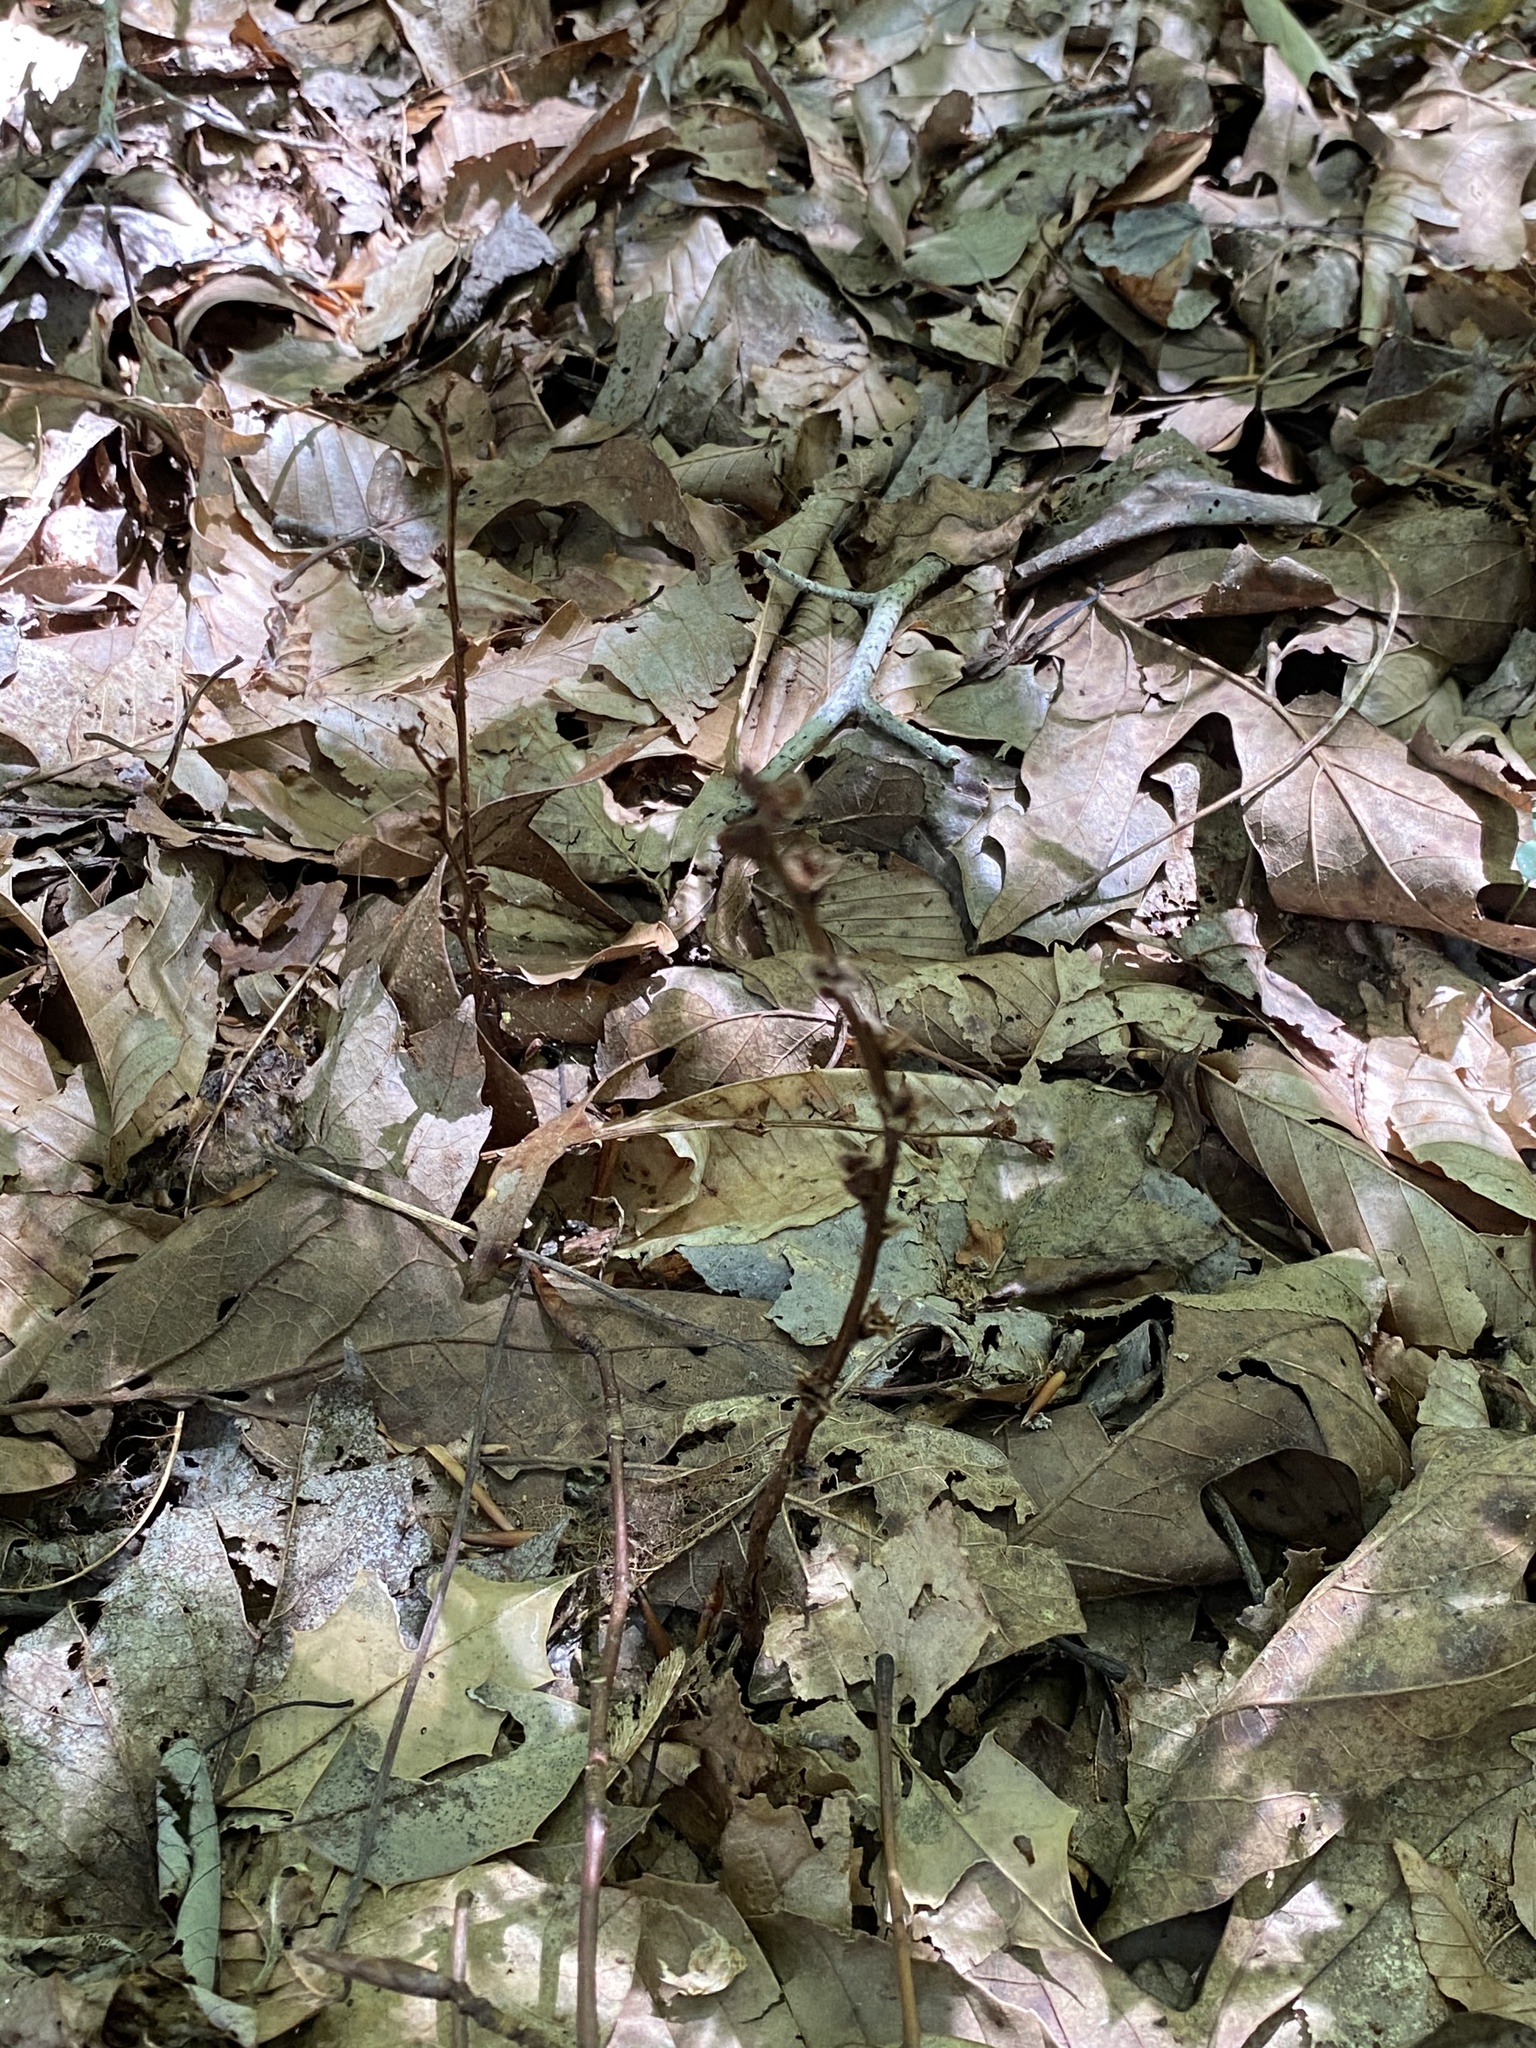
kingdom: Plantae
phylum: Tracheophyta
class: Magnoliopsida
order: Lamiales
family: Orobanchaceae
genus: Epifagus
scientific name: Epifagus virginiana
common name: Beechdrops
